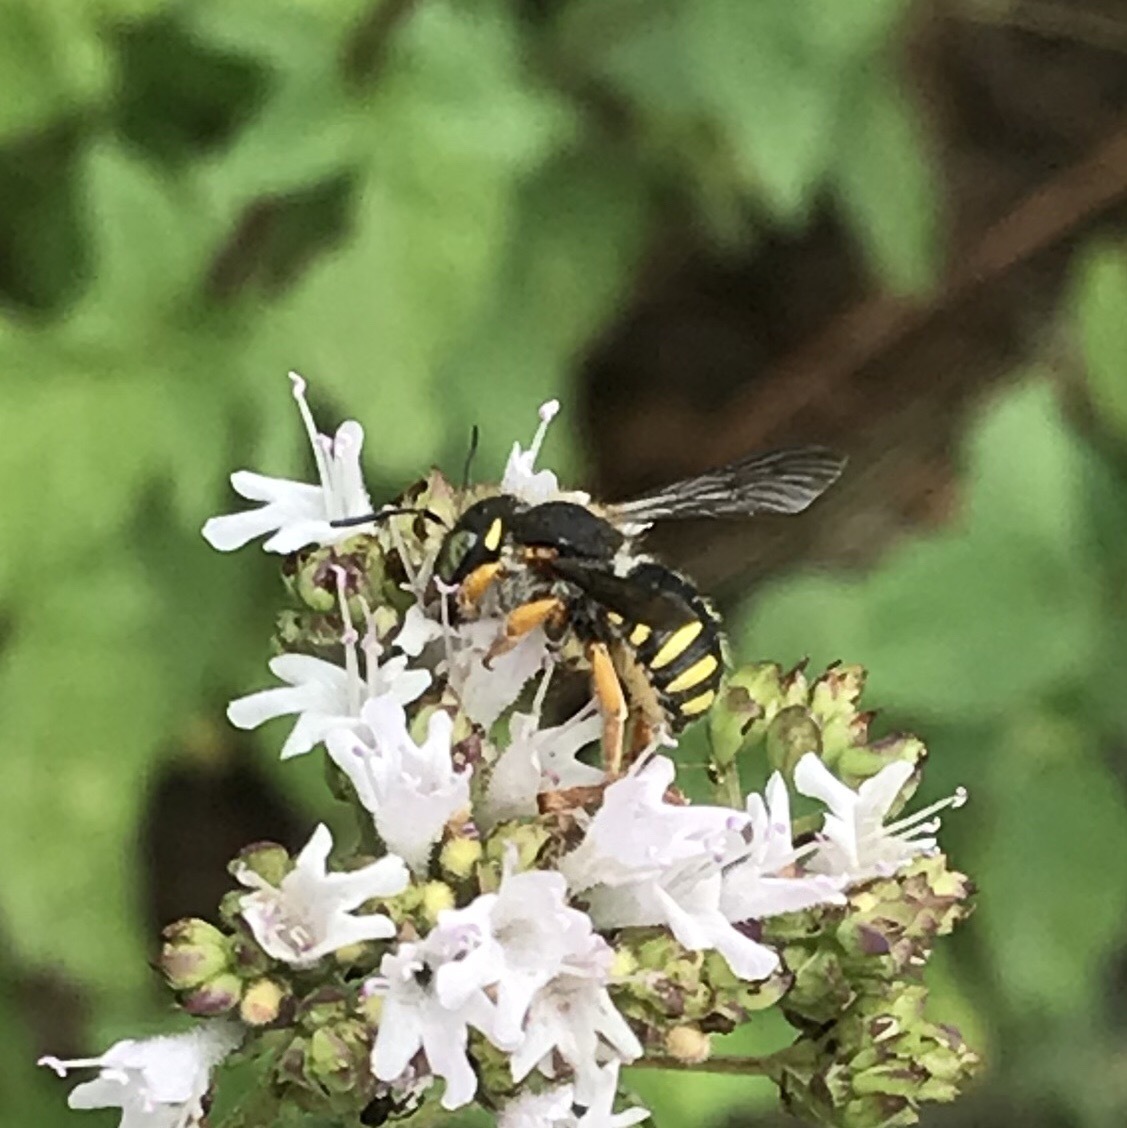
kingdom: Animalia
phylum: Arthropoda
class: Insecta
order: Hymenoptera
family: Megachilidae
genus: Anthidium
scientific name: Anthidium oblongatum
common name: Oblong wool carder bee
